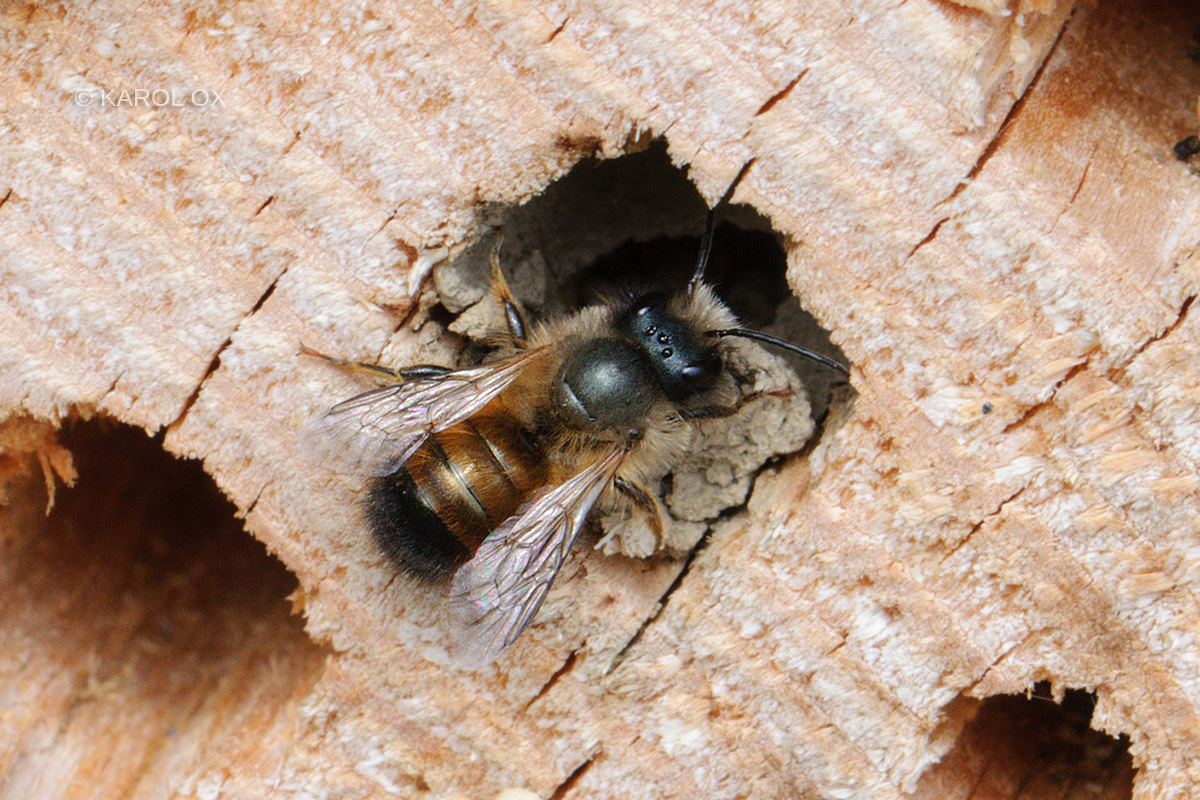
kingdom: Animalia
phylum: Arthropoda
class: Insecta
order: Hymenoptera
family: Megachilidae
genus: Osmia
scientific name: Osmia bicornis
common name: Red mason bee
